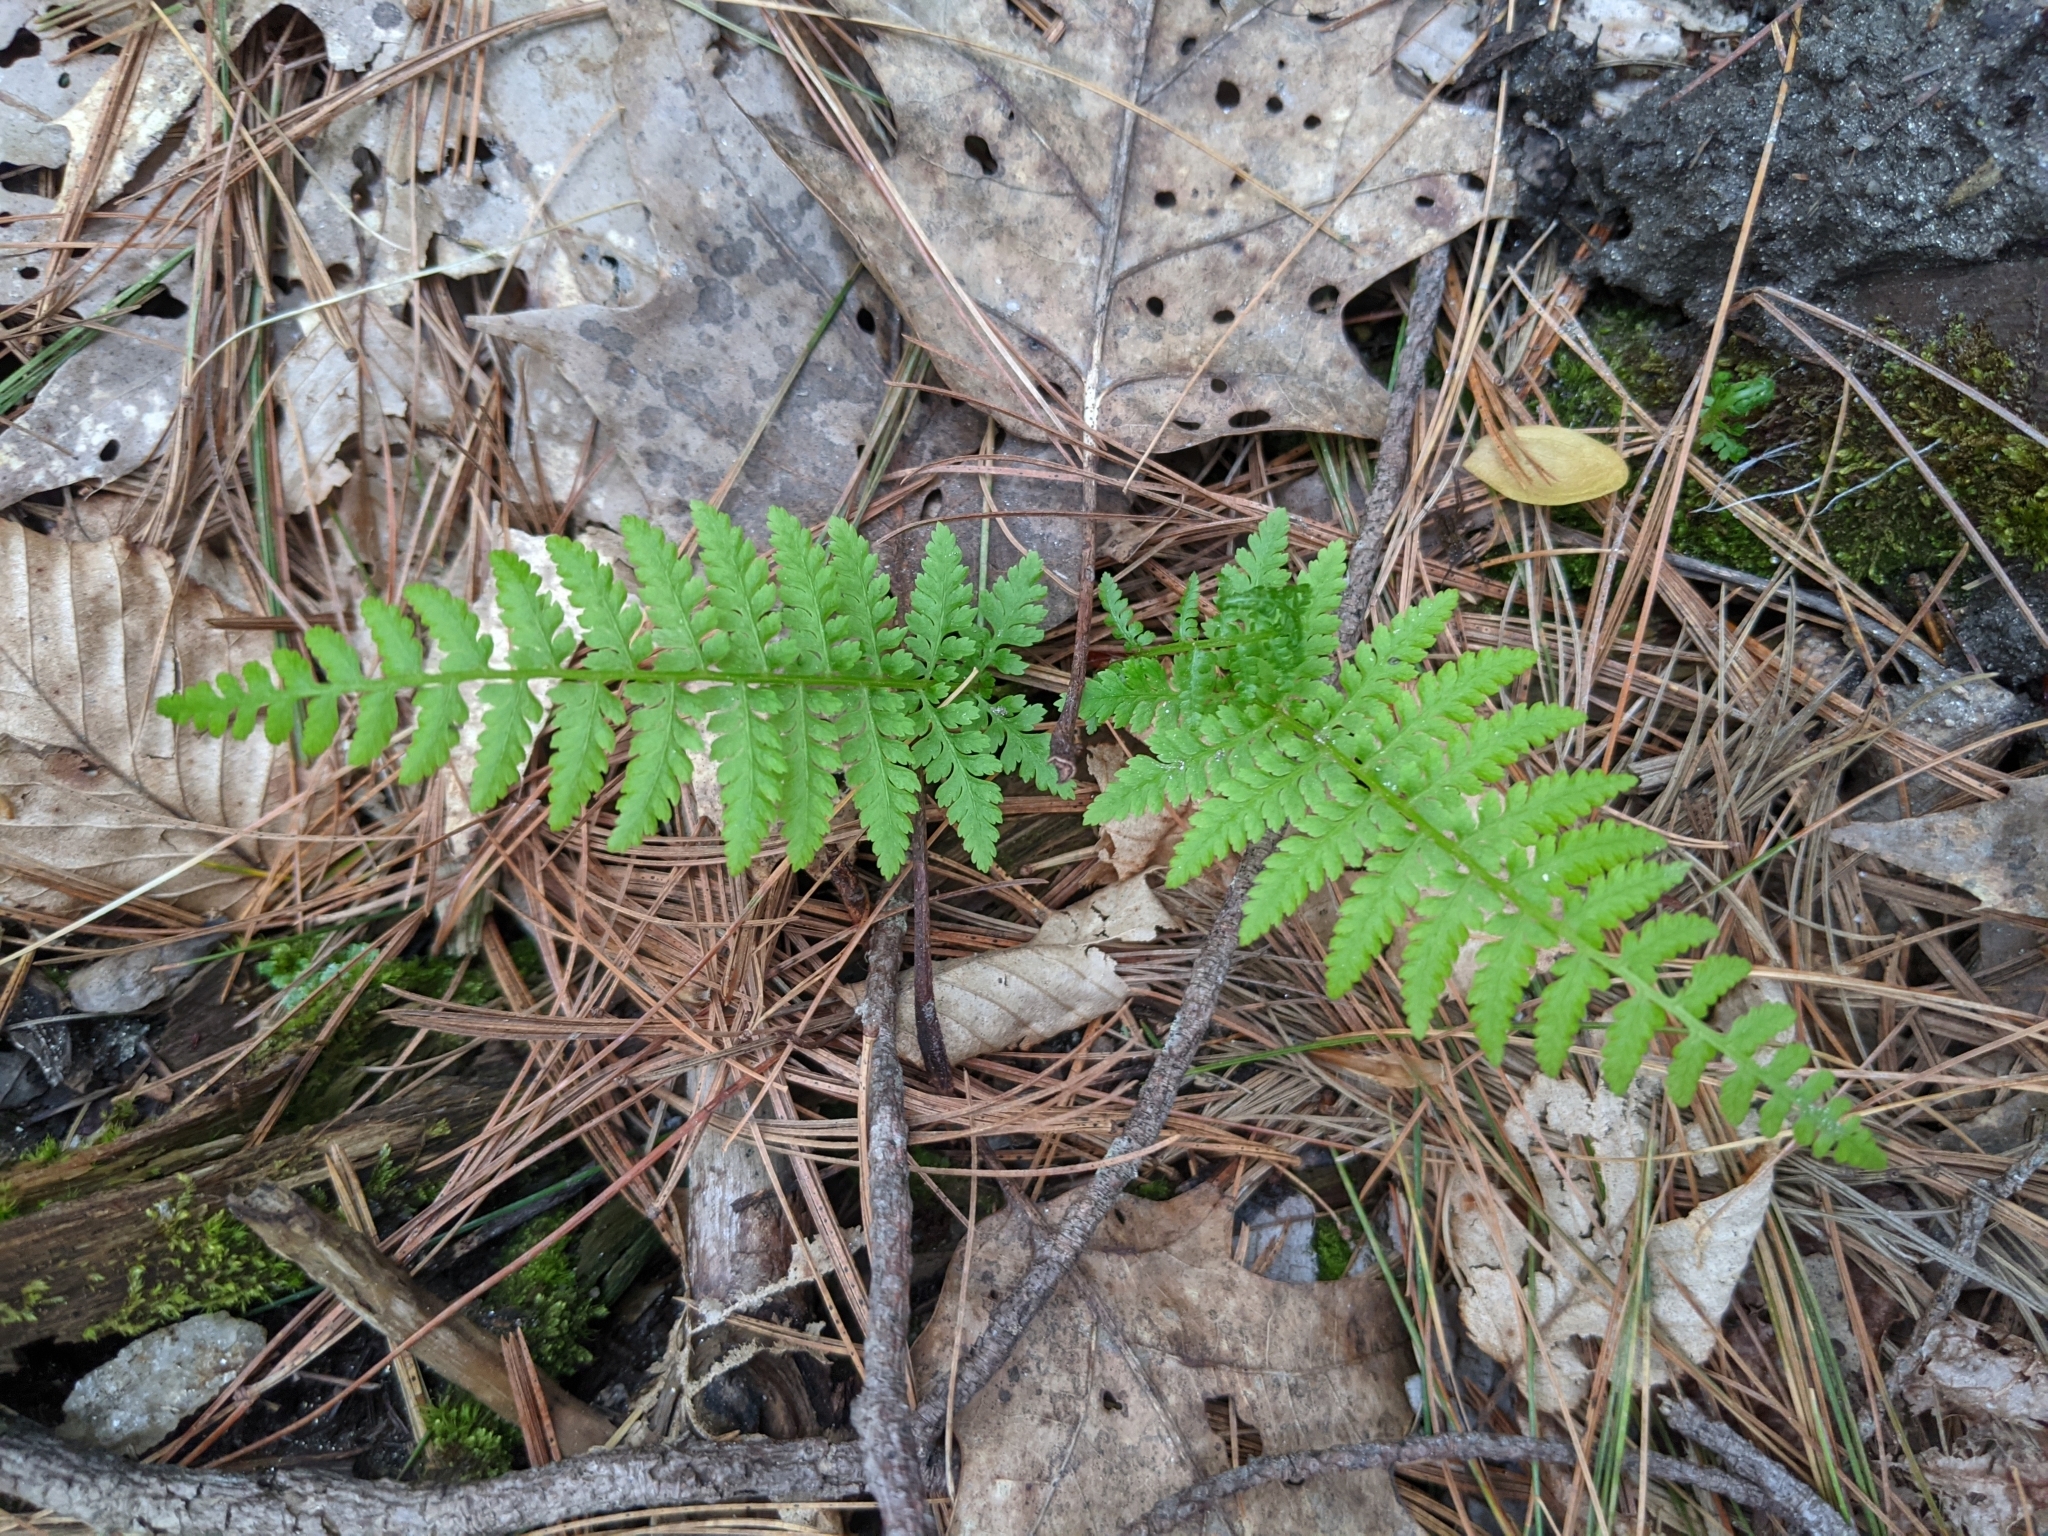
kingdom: Plantae
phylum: Tracheophyta
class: Polypodiopsida
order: Polypodiales
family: Athyriaceae
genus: Athyrium
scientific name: Athyrium asplenioides
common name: Southern lady fern
